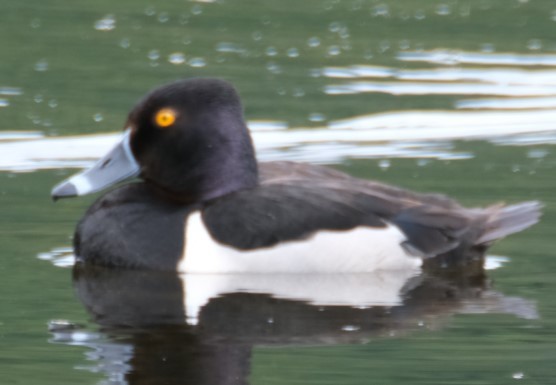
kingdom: Animalia
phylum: Chordata
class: Aves
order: Anseriformes
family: Anatidae
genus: Aythya
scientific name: Aythya collaris
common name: Ring-necked duck
